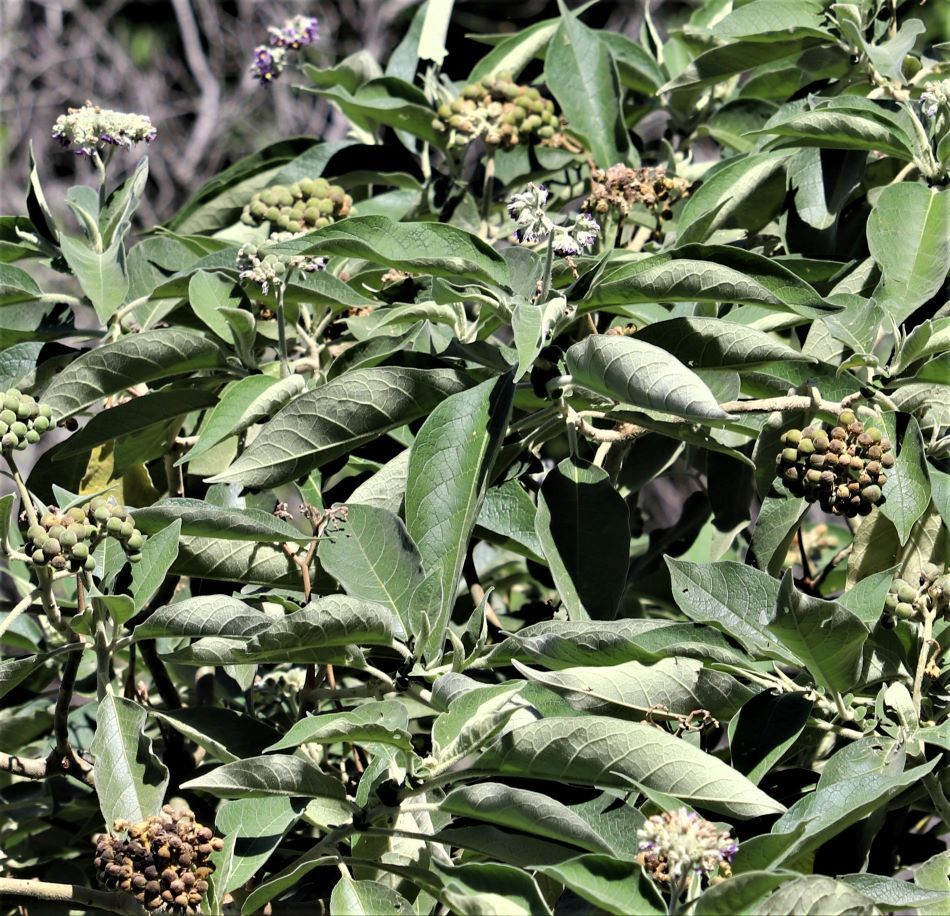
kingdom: Plantae
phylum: Tracheophyta
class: Magnoliopsida
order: Solanales
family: Solanaceae
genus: Solanum
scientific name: Solanum mauritianum
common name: Earleaf nightshade
